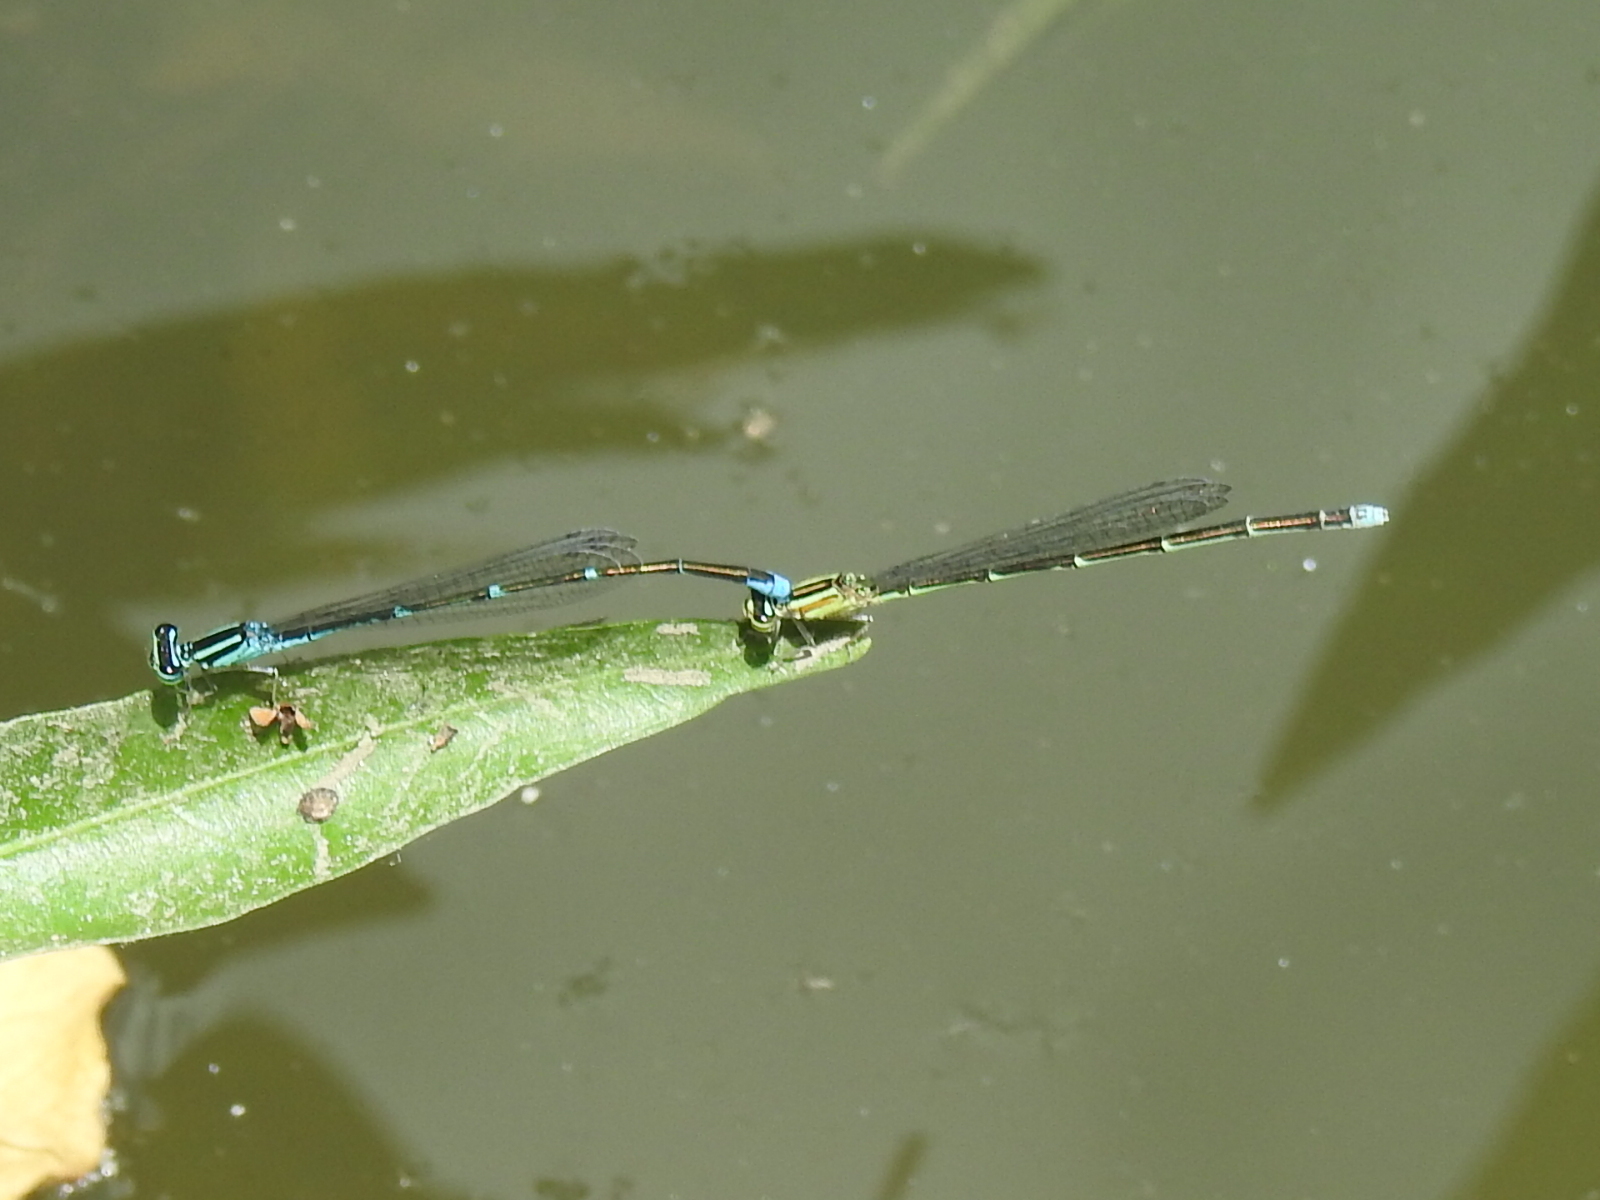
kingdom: Animalia
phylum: Arthropoda
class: Insecta
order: Odonata
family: Coenagrionidae
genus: Enallagma
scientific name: Enallagma exsulans
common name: Stream bluet
